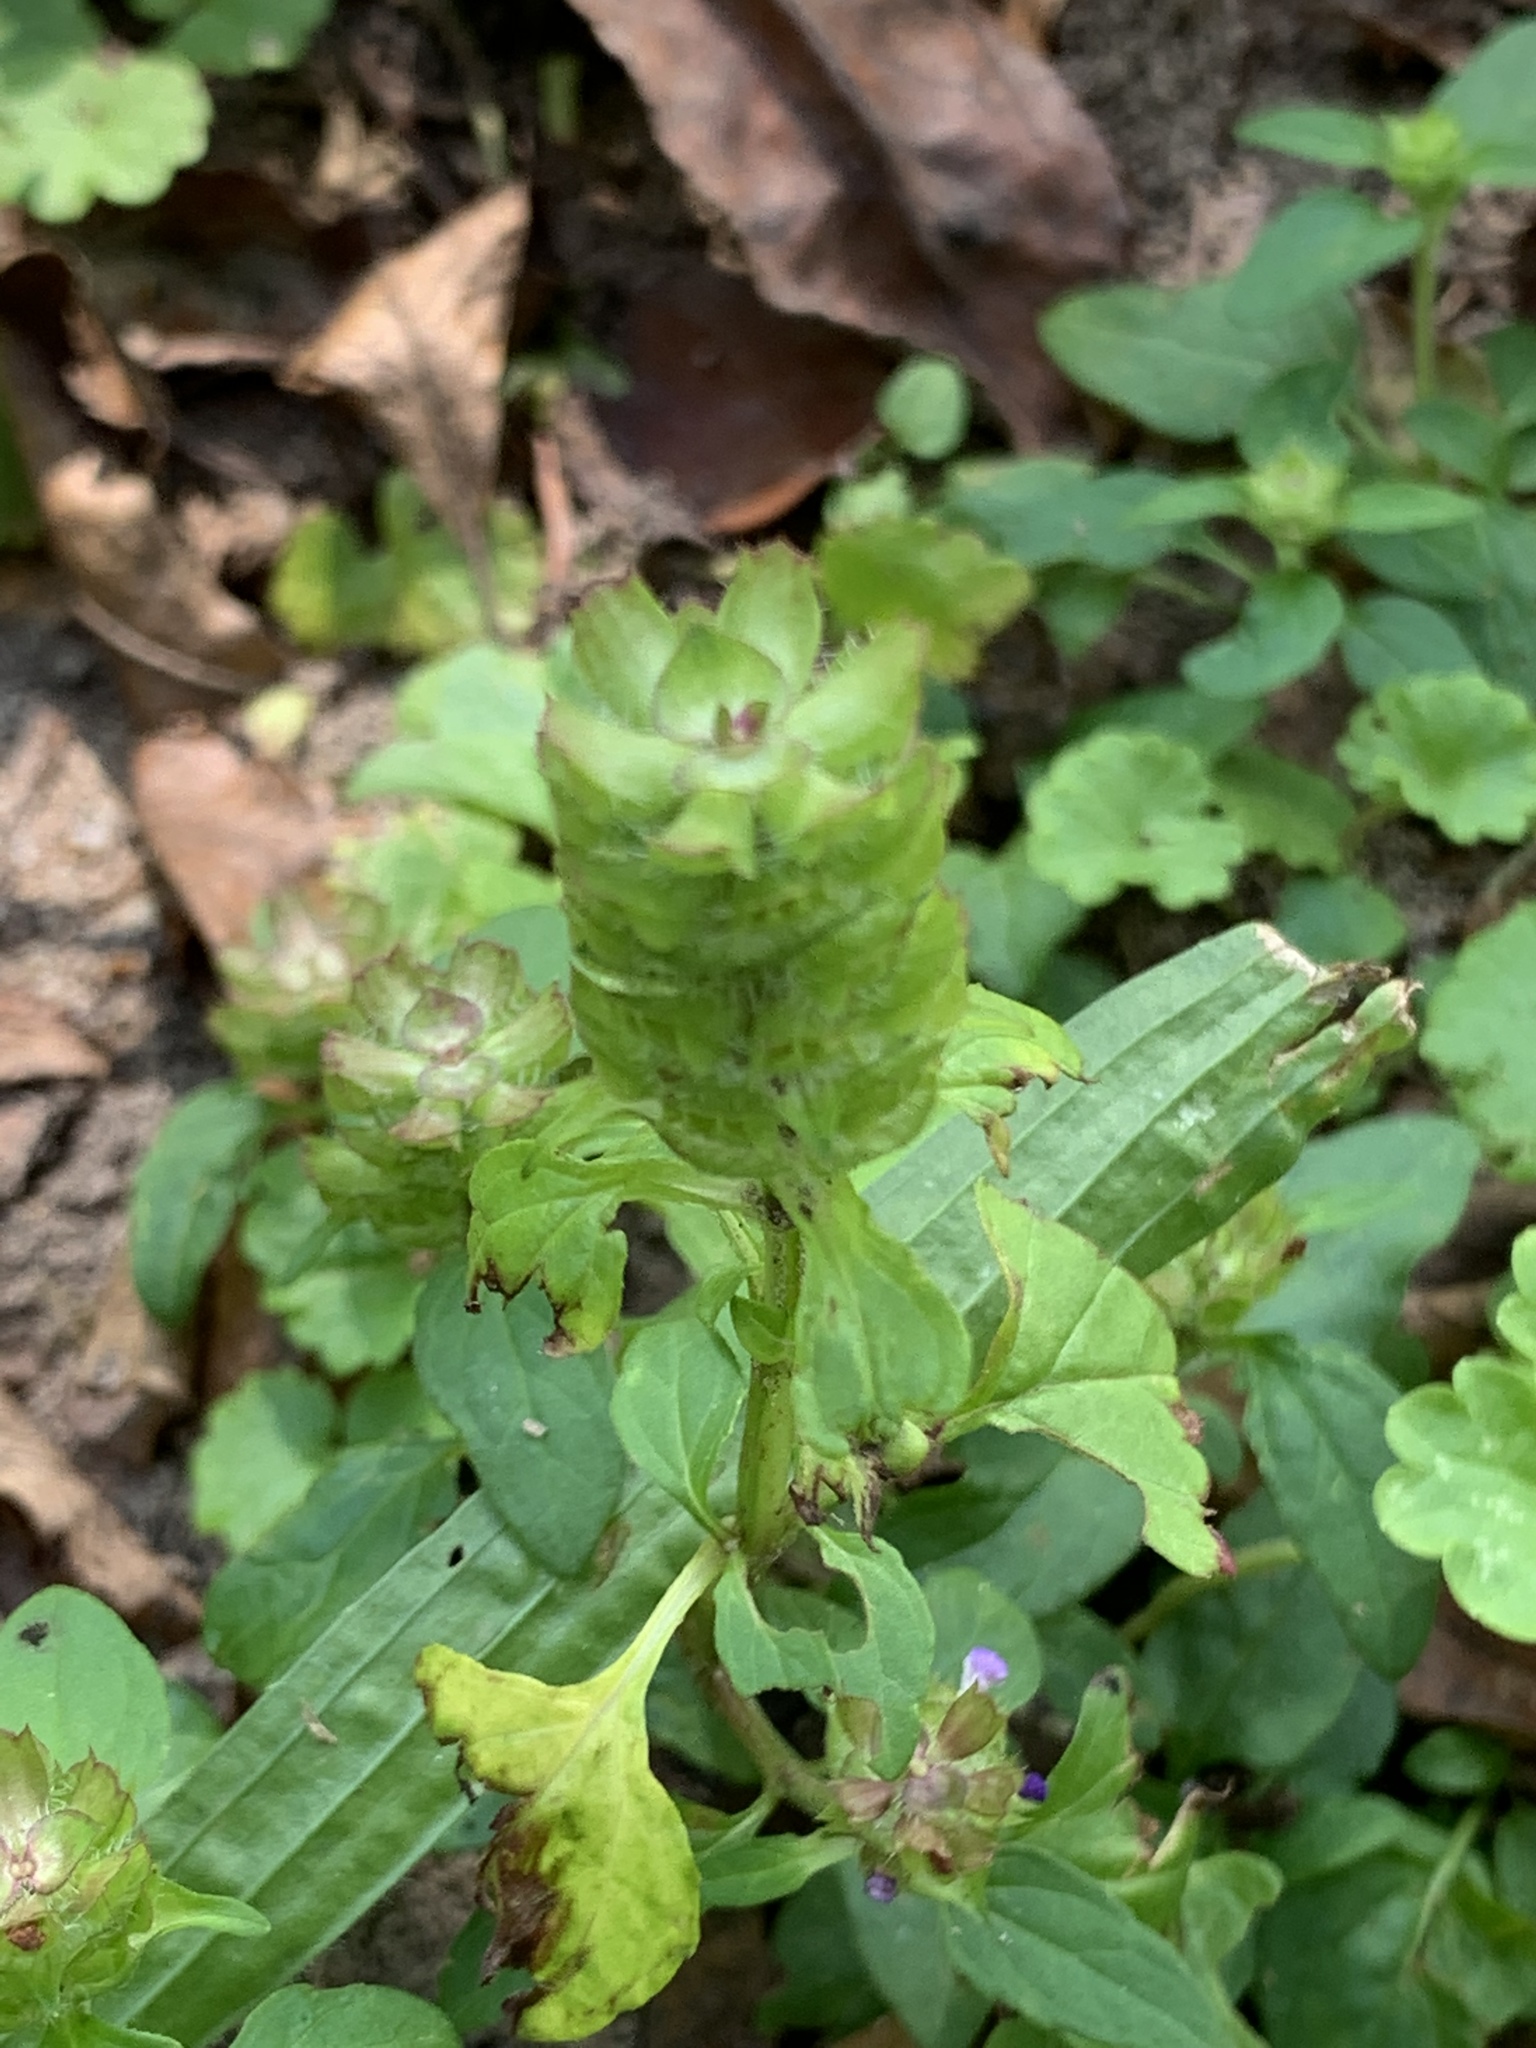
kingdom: Plantae
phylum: Tracheophyta
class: Magnoliopsida
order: Lamiales
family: Lamiaceae
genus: Prunella
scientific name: Prunella vulgaris
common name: Heal-all
